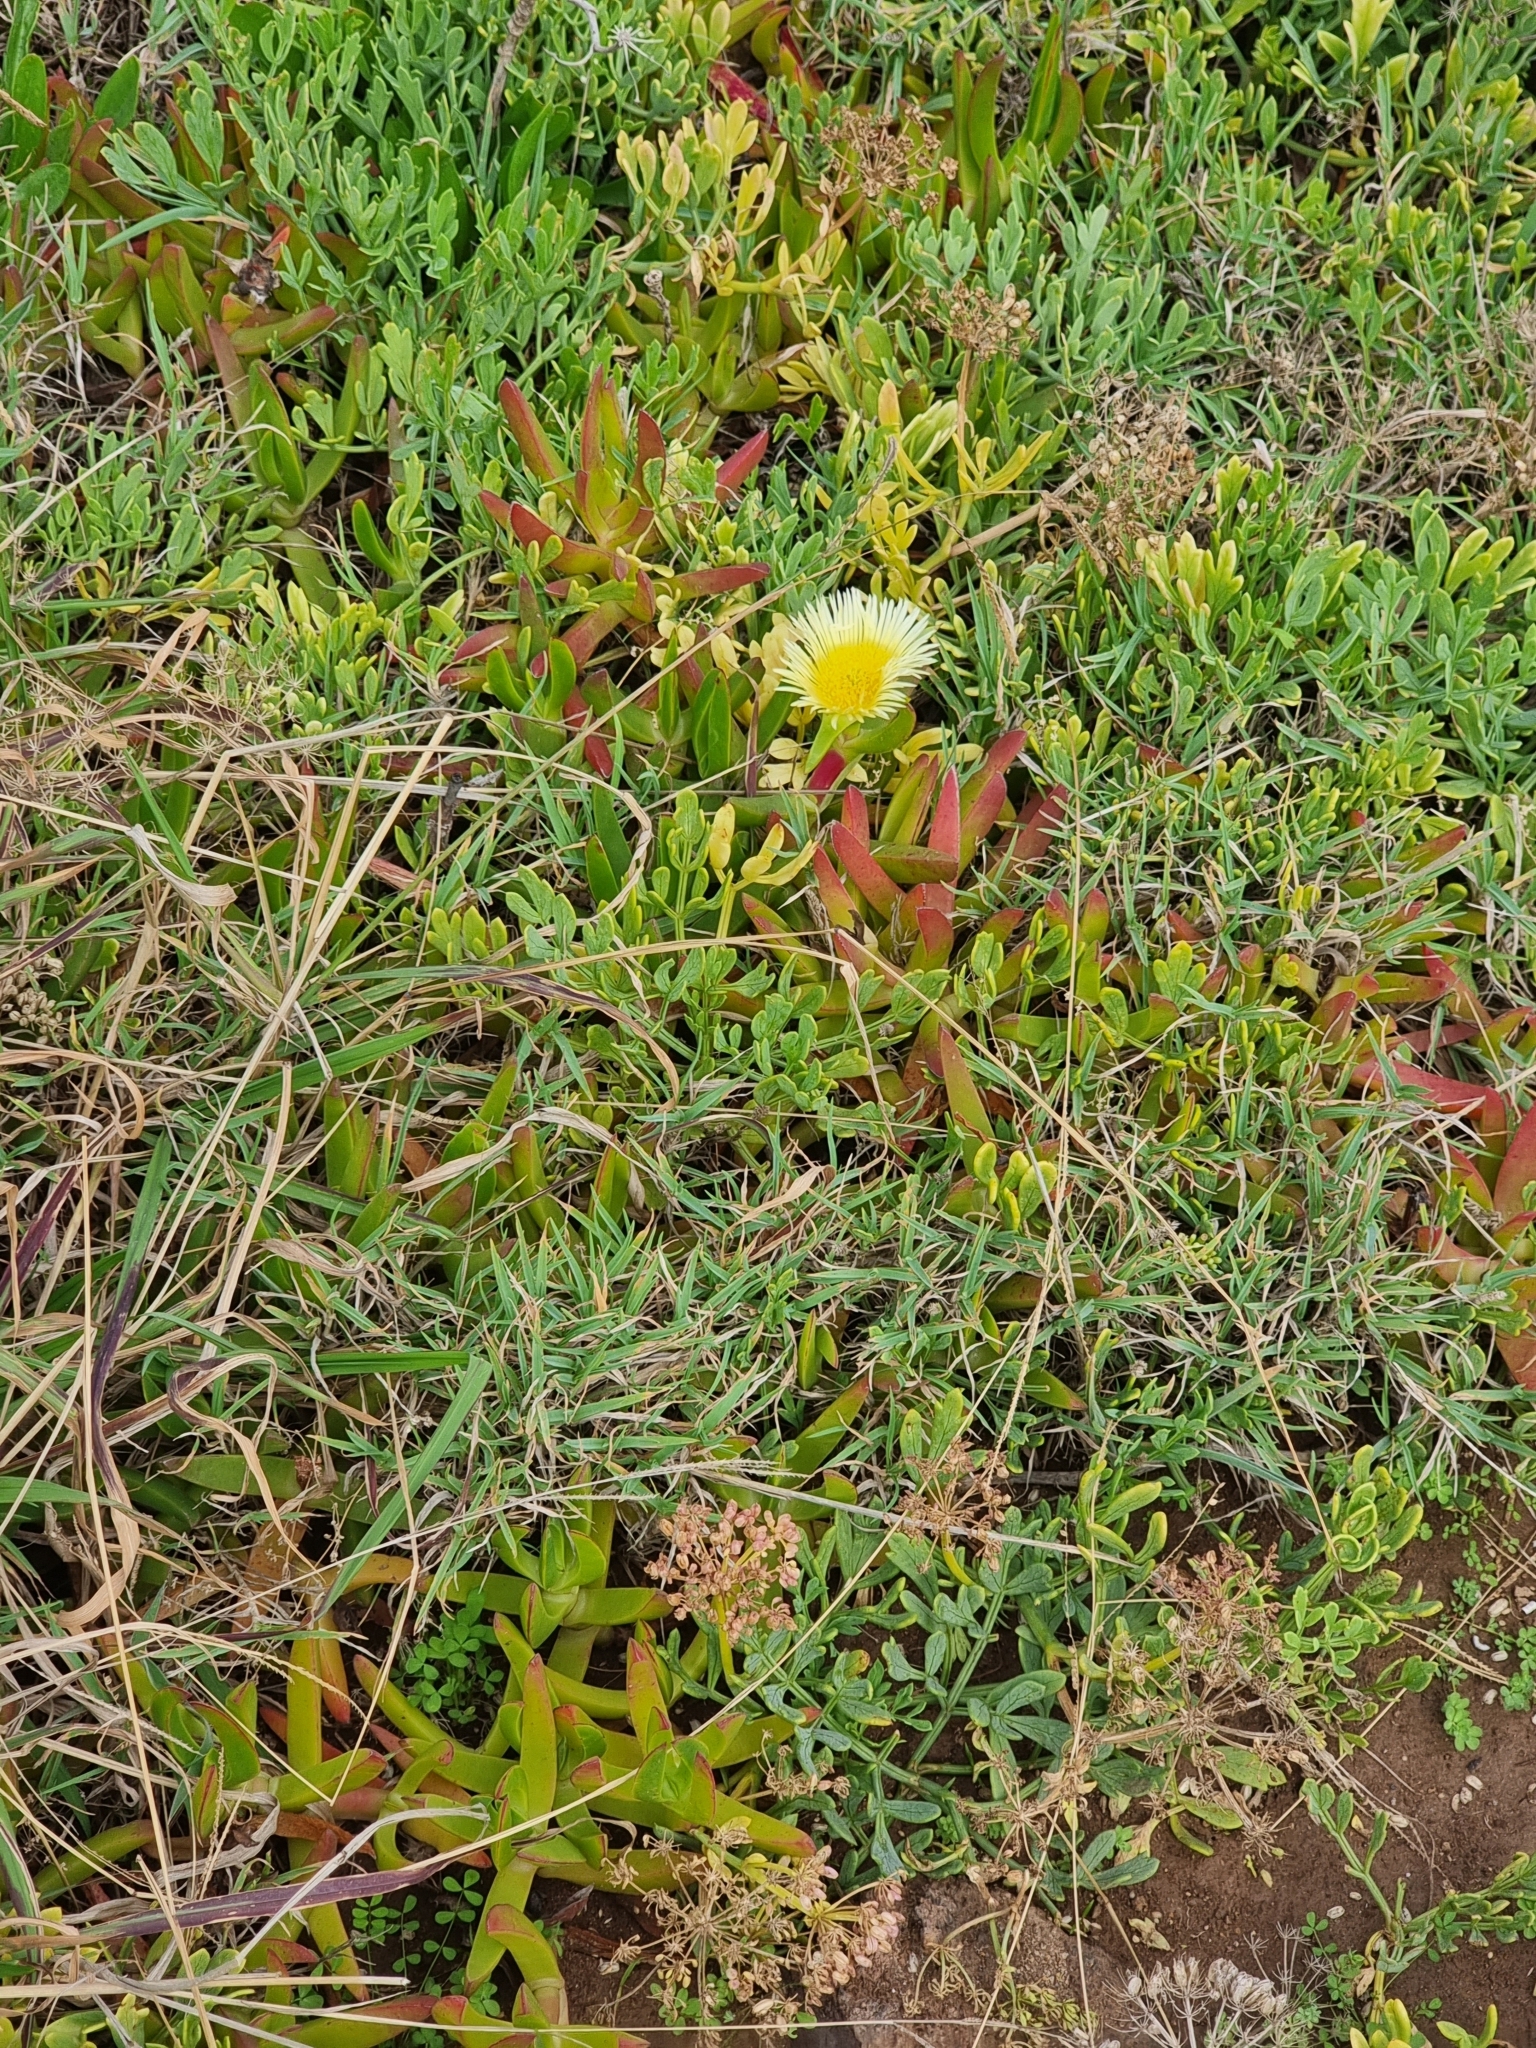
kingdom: Plantae
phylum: Tracheophyta
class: Magnoliopsida
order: Caryophyllales
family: Aizoaceae
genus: Carpobrotus
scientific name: Carpobrotus edulis
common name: Hottentot-fig
